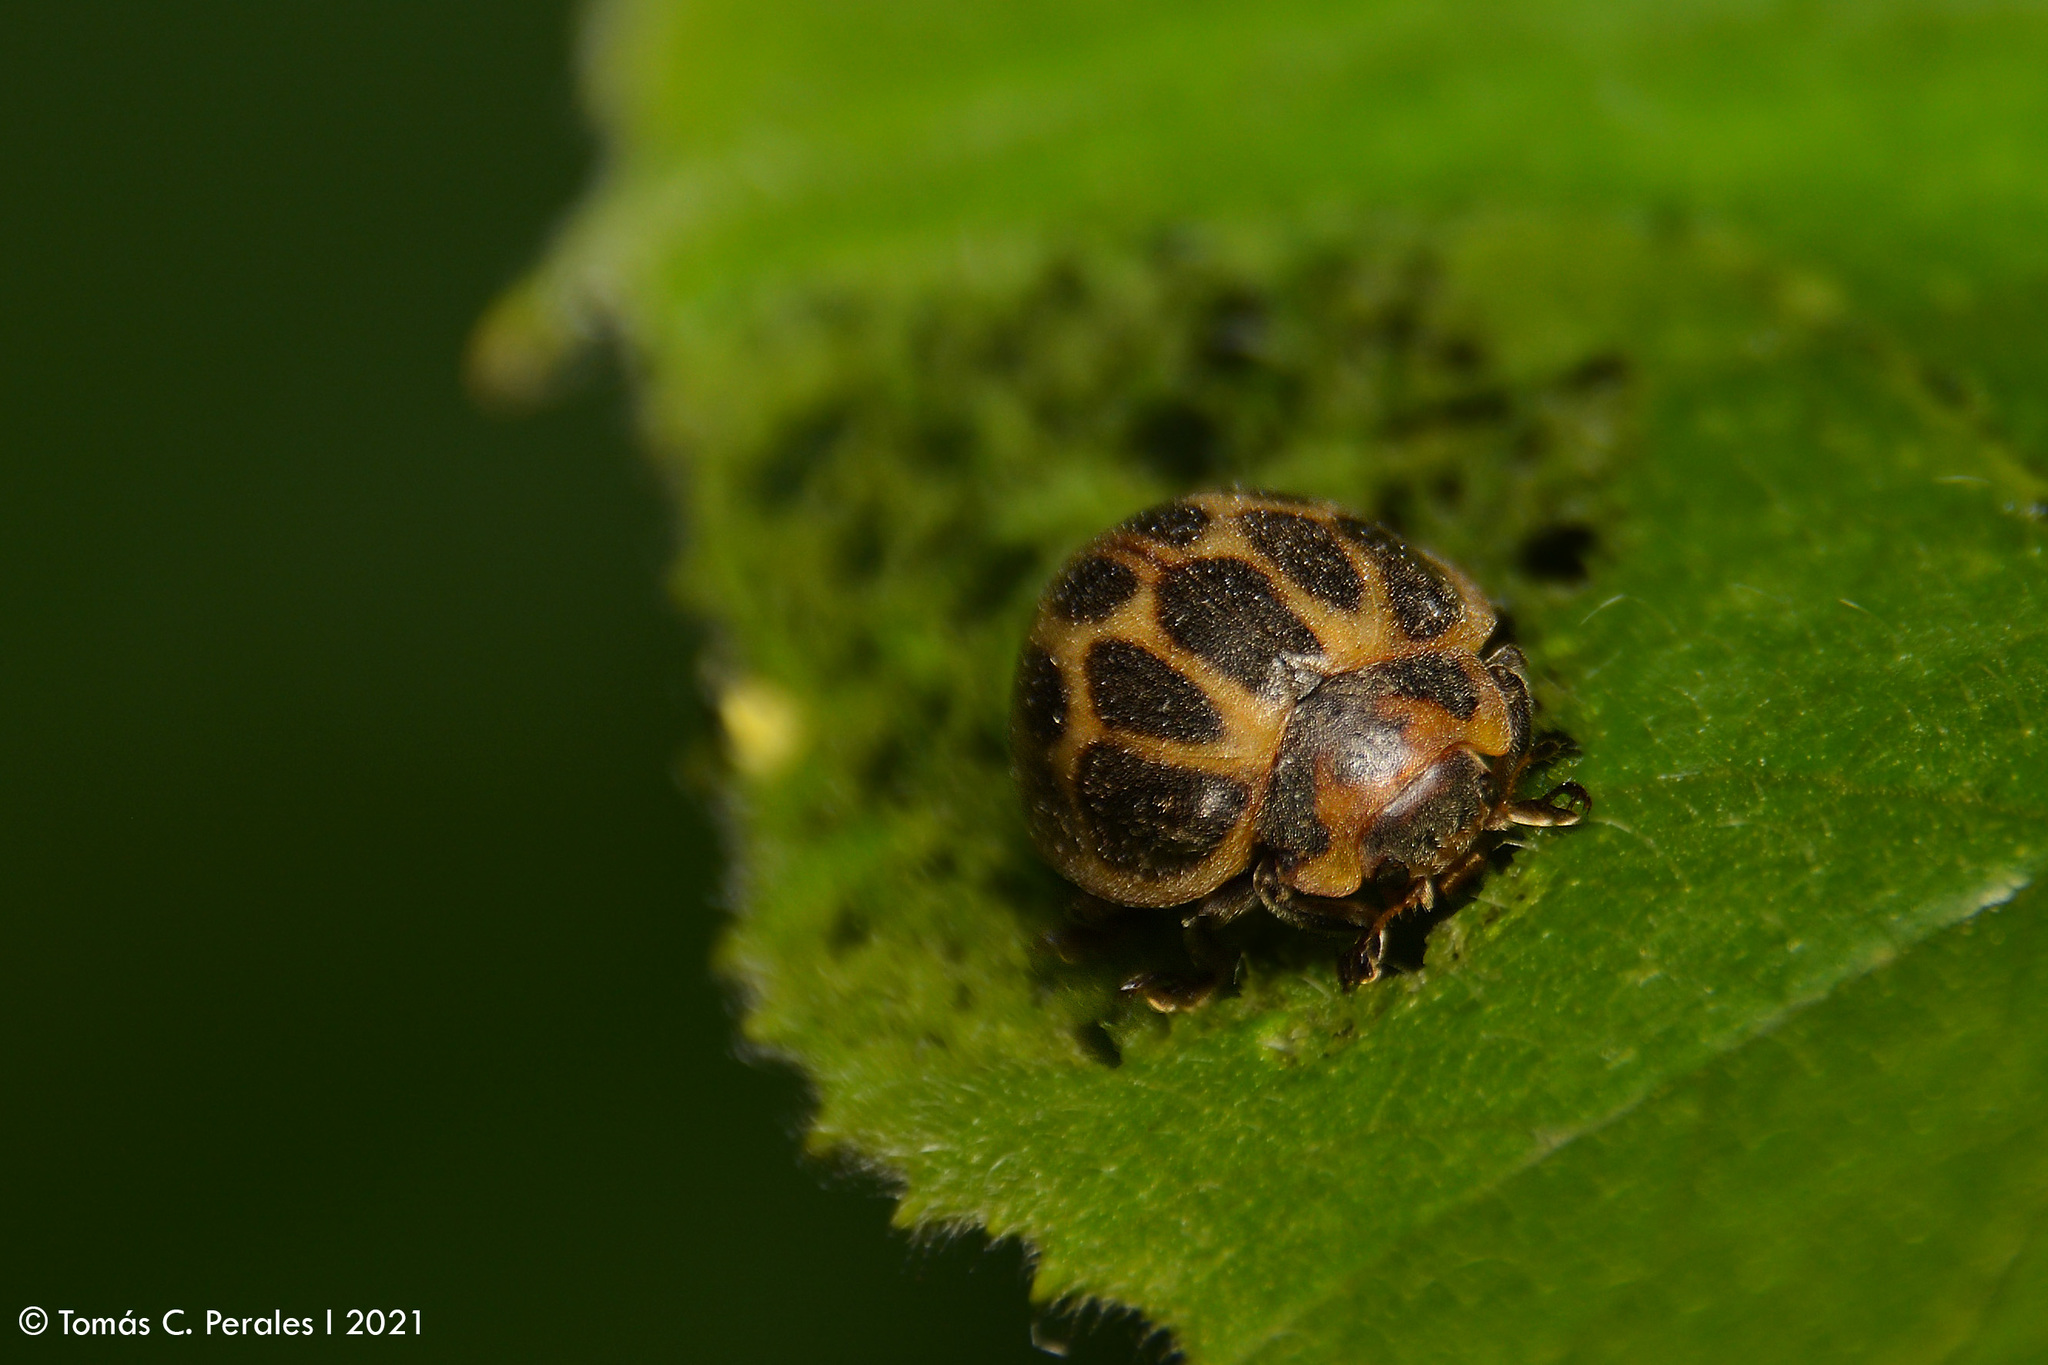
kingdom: Animalia
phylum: Arthropoda
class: Insecta
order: Coleoptera
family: Coccinellidae
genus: Epilachna
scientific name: Epilachna
